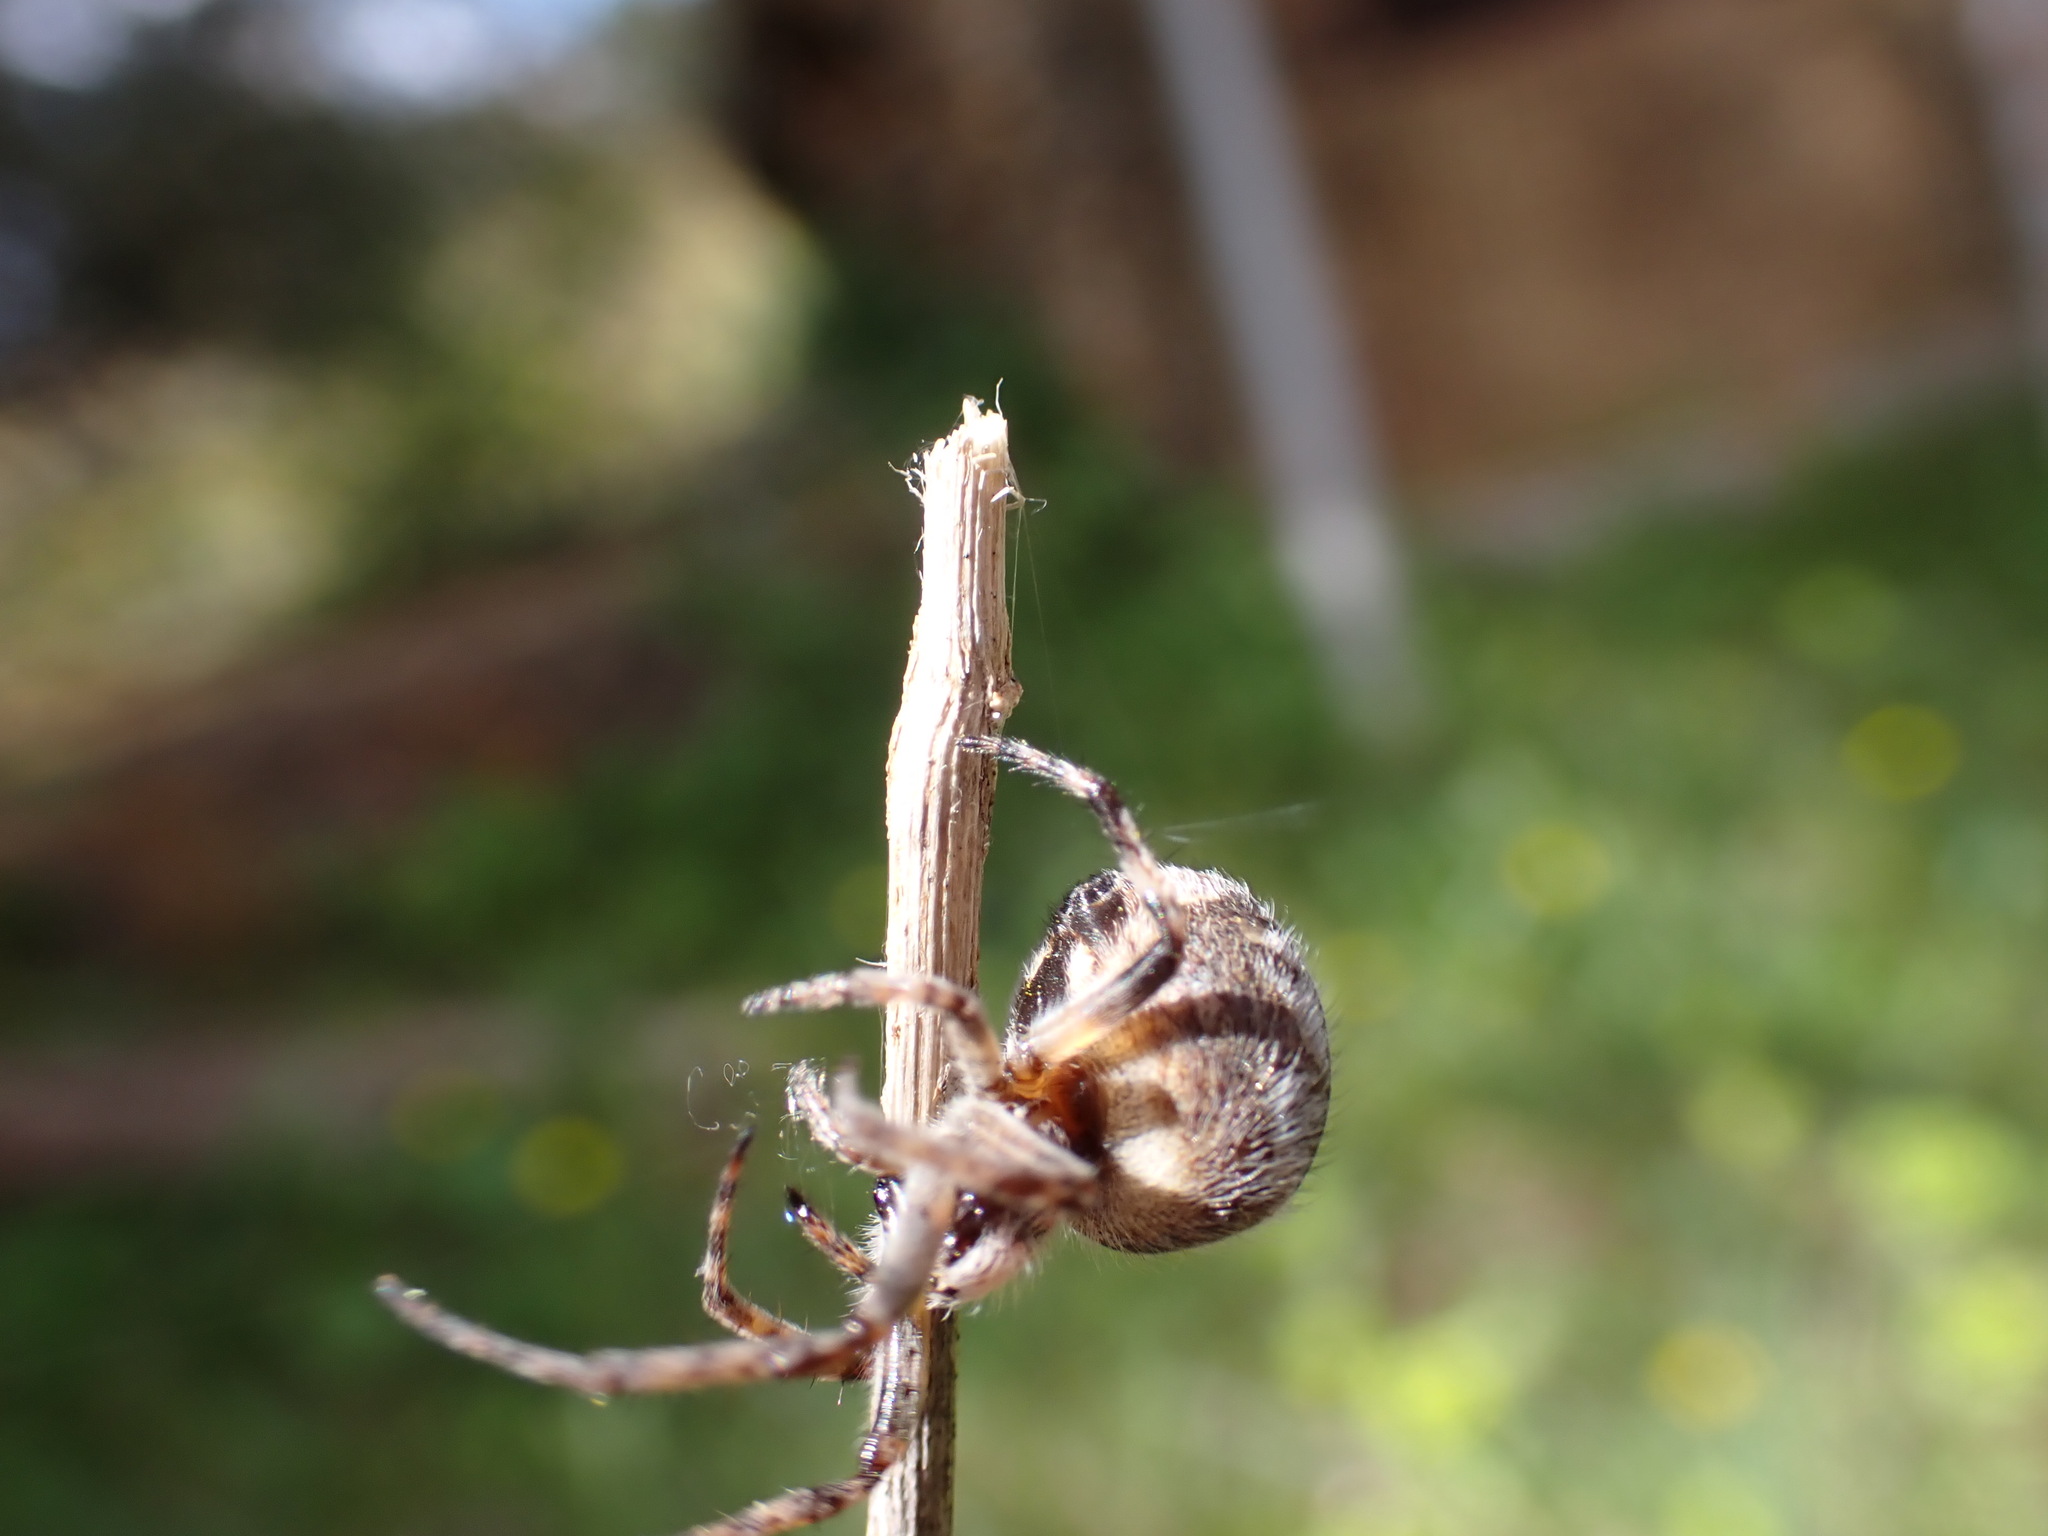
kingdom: Animalia
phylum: Arthropoda
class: Arachnida
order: Araneae
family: Araneidae
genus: Agalenatea
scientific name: Agalenatea redii
